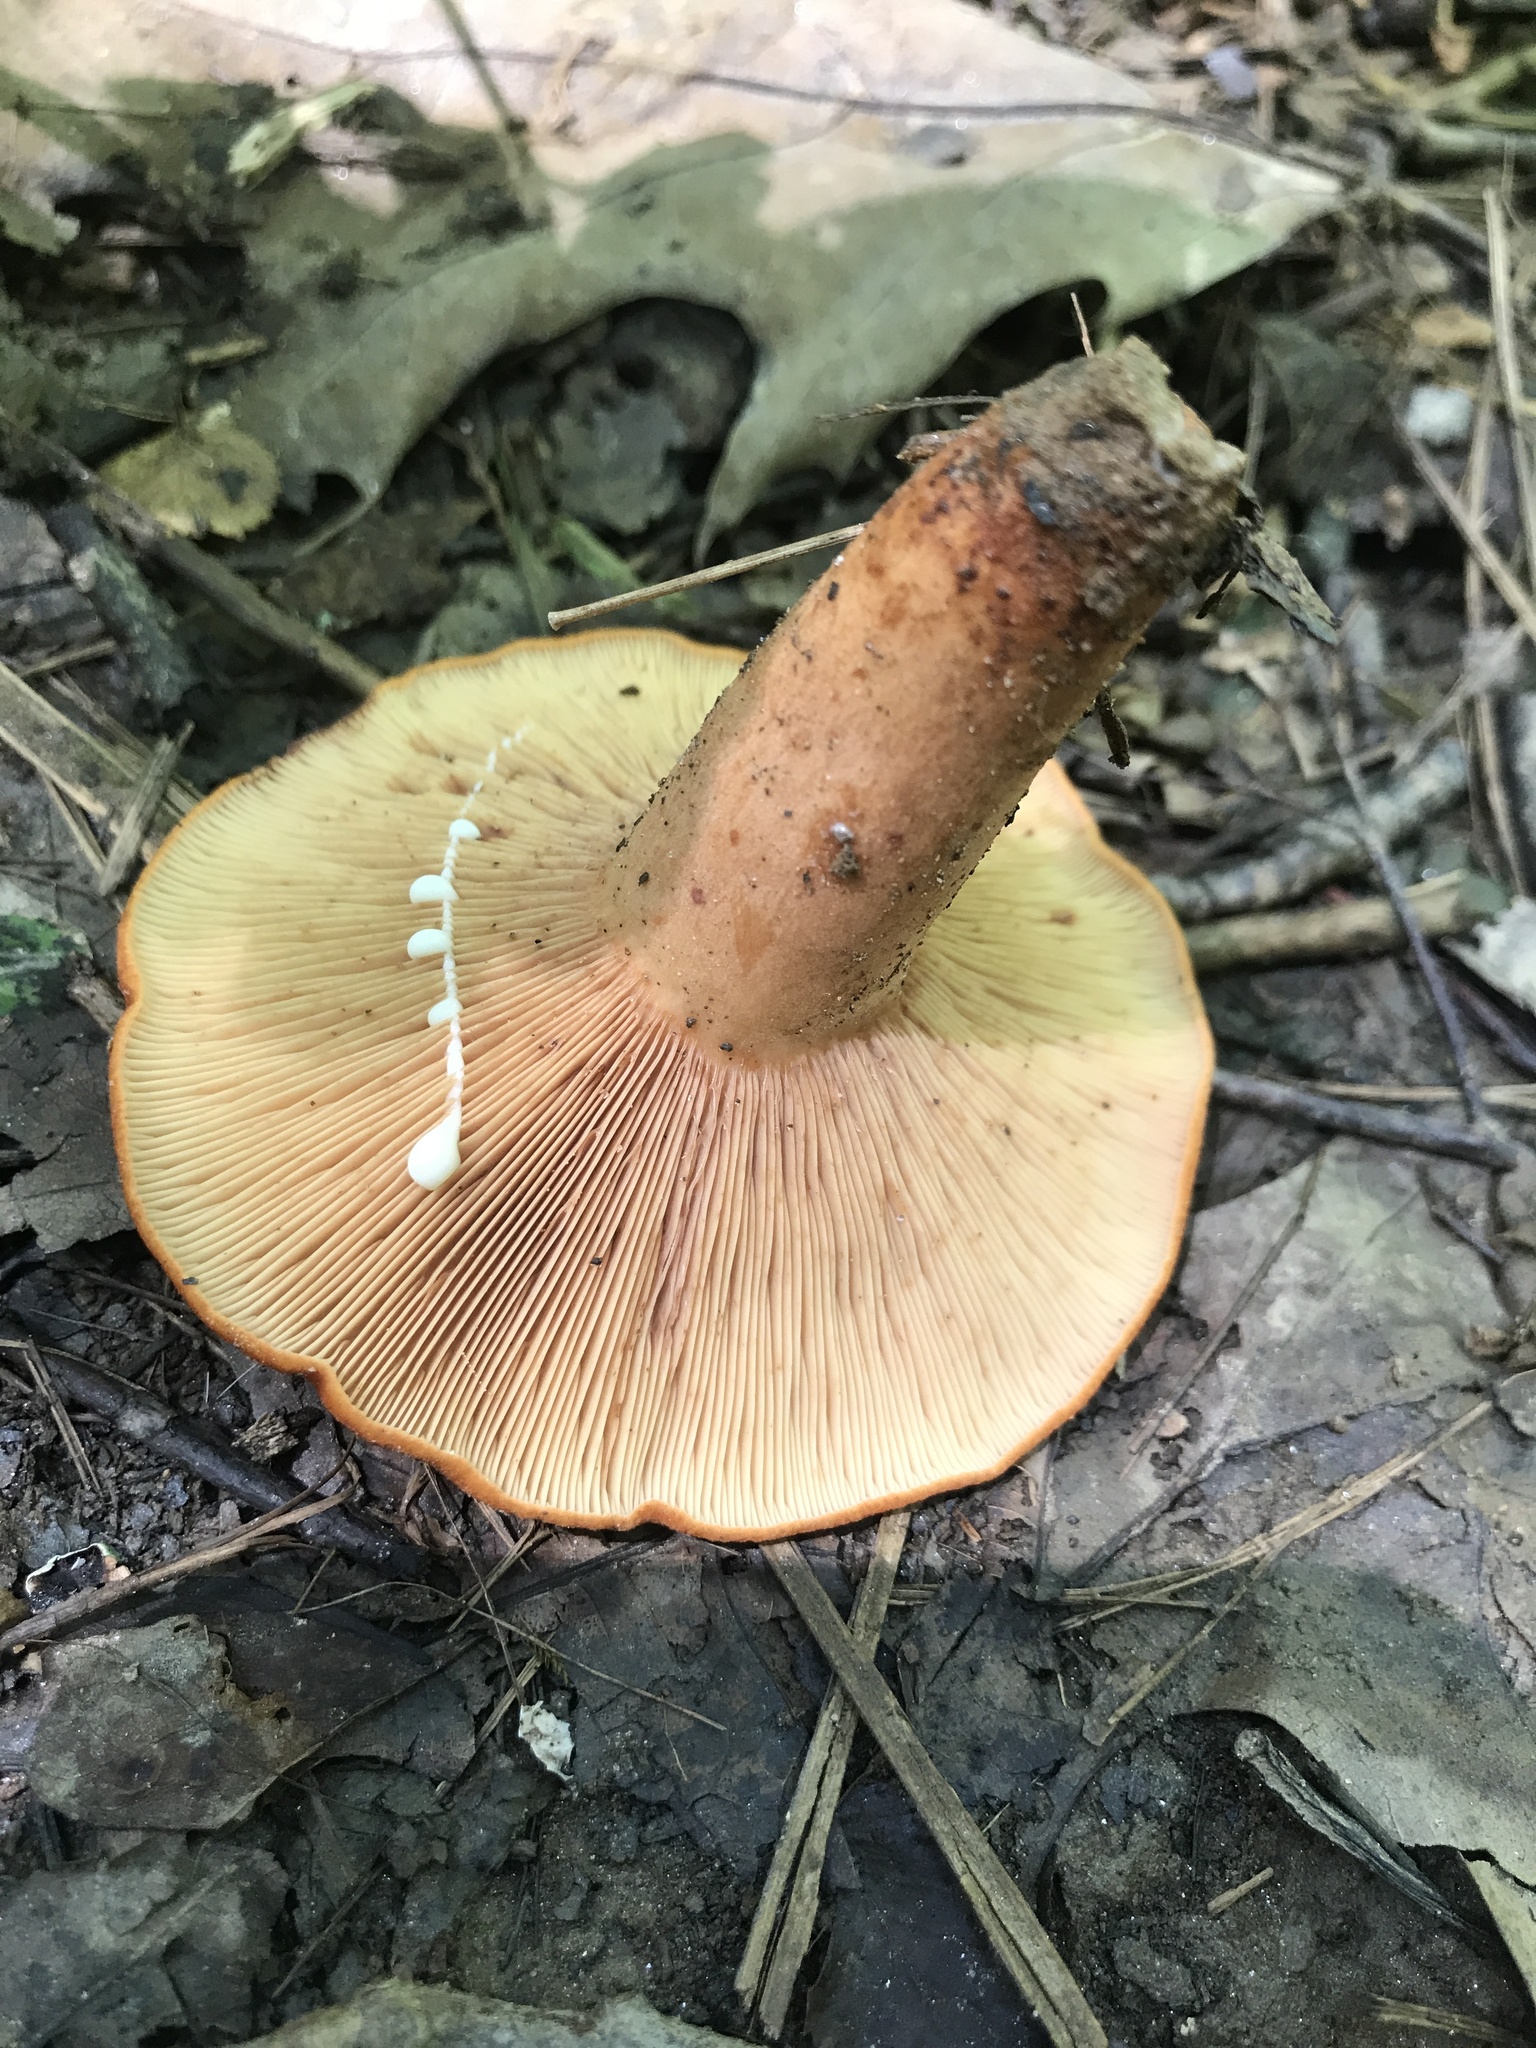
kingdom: Fungi
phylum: Basidiomycota
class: Agaricomycetes
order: Russulales
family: Russulaceae
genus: Lactarius
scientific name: Lactarius peckii
